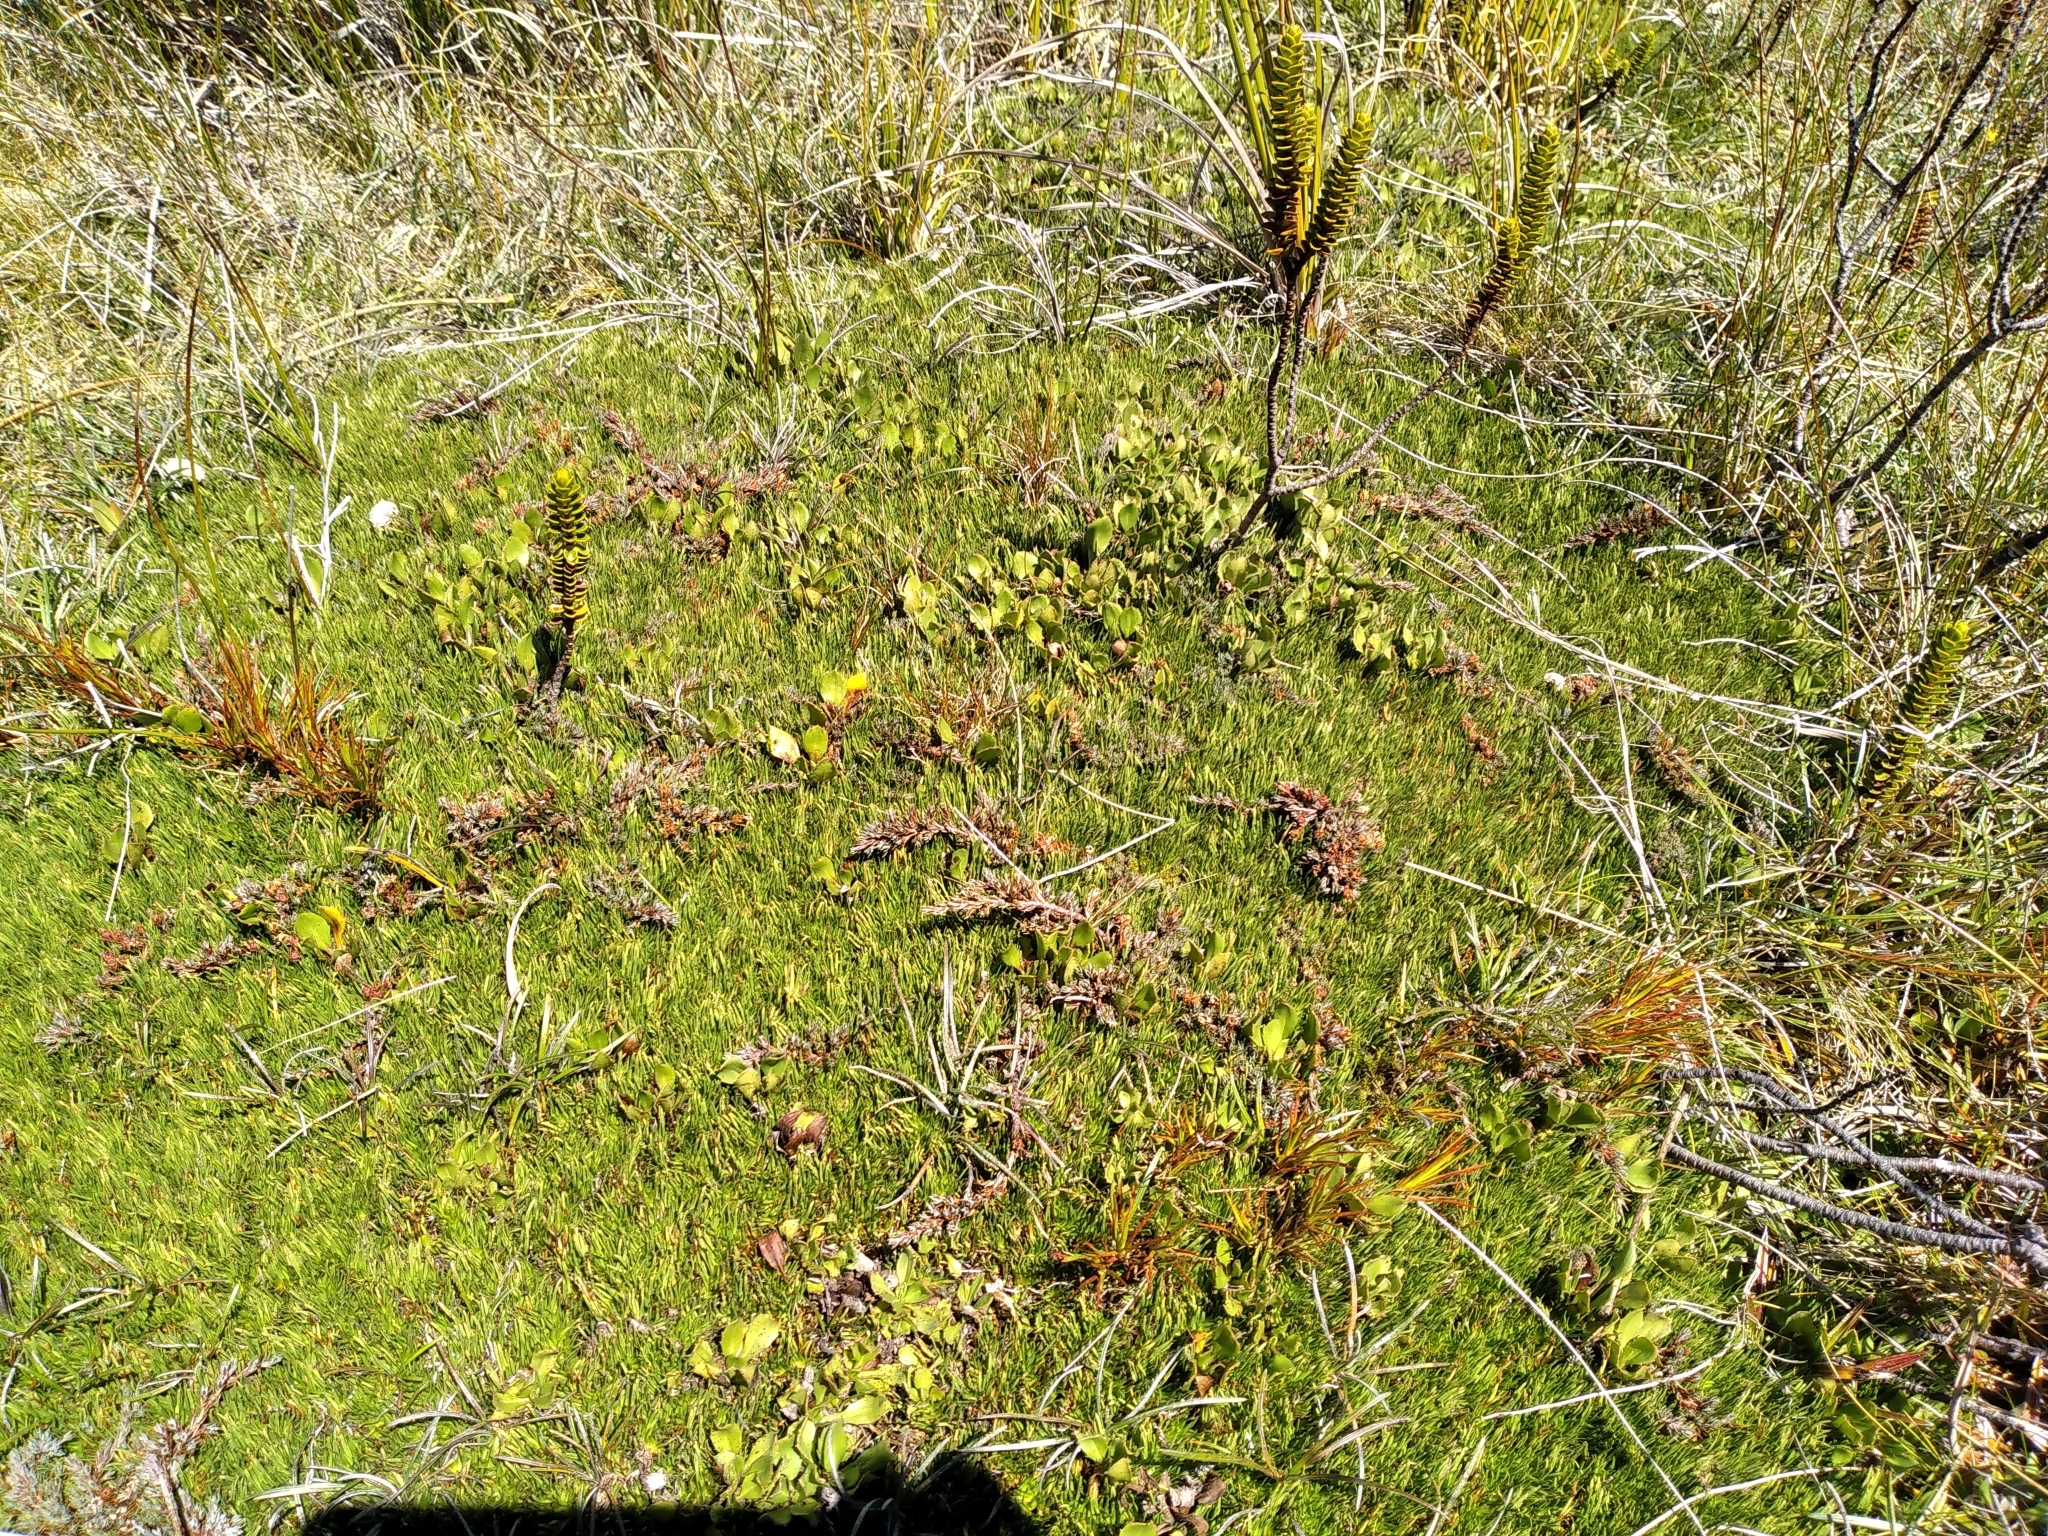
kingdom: Plantae
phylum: Tracheophyta
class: Magnoliopsida
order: Ericales
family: Ericaceae
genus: Dracophyllum
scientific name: Dracophyllum prostratum
